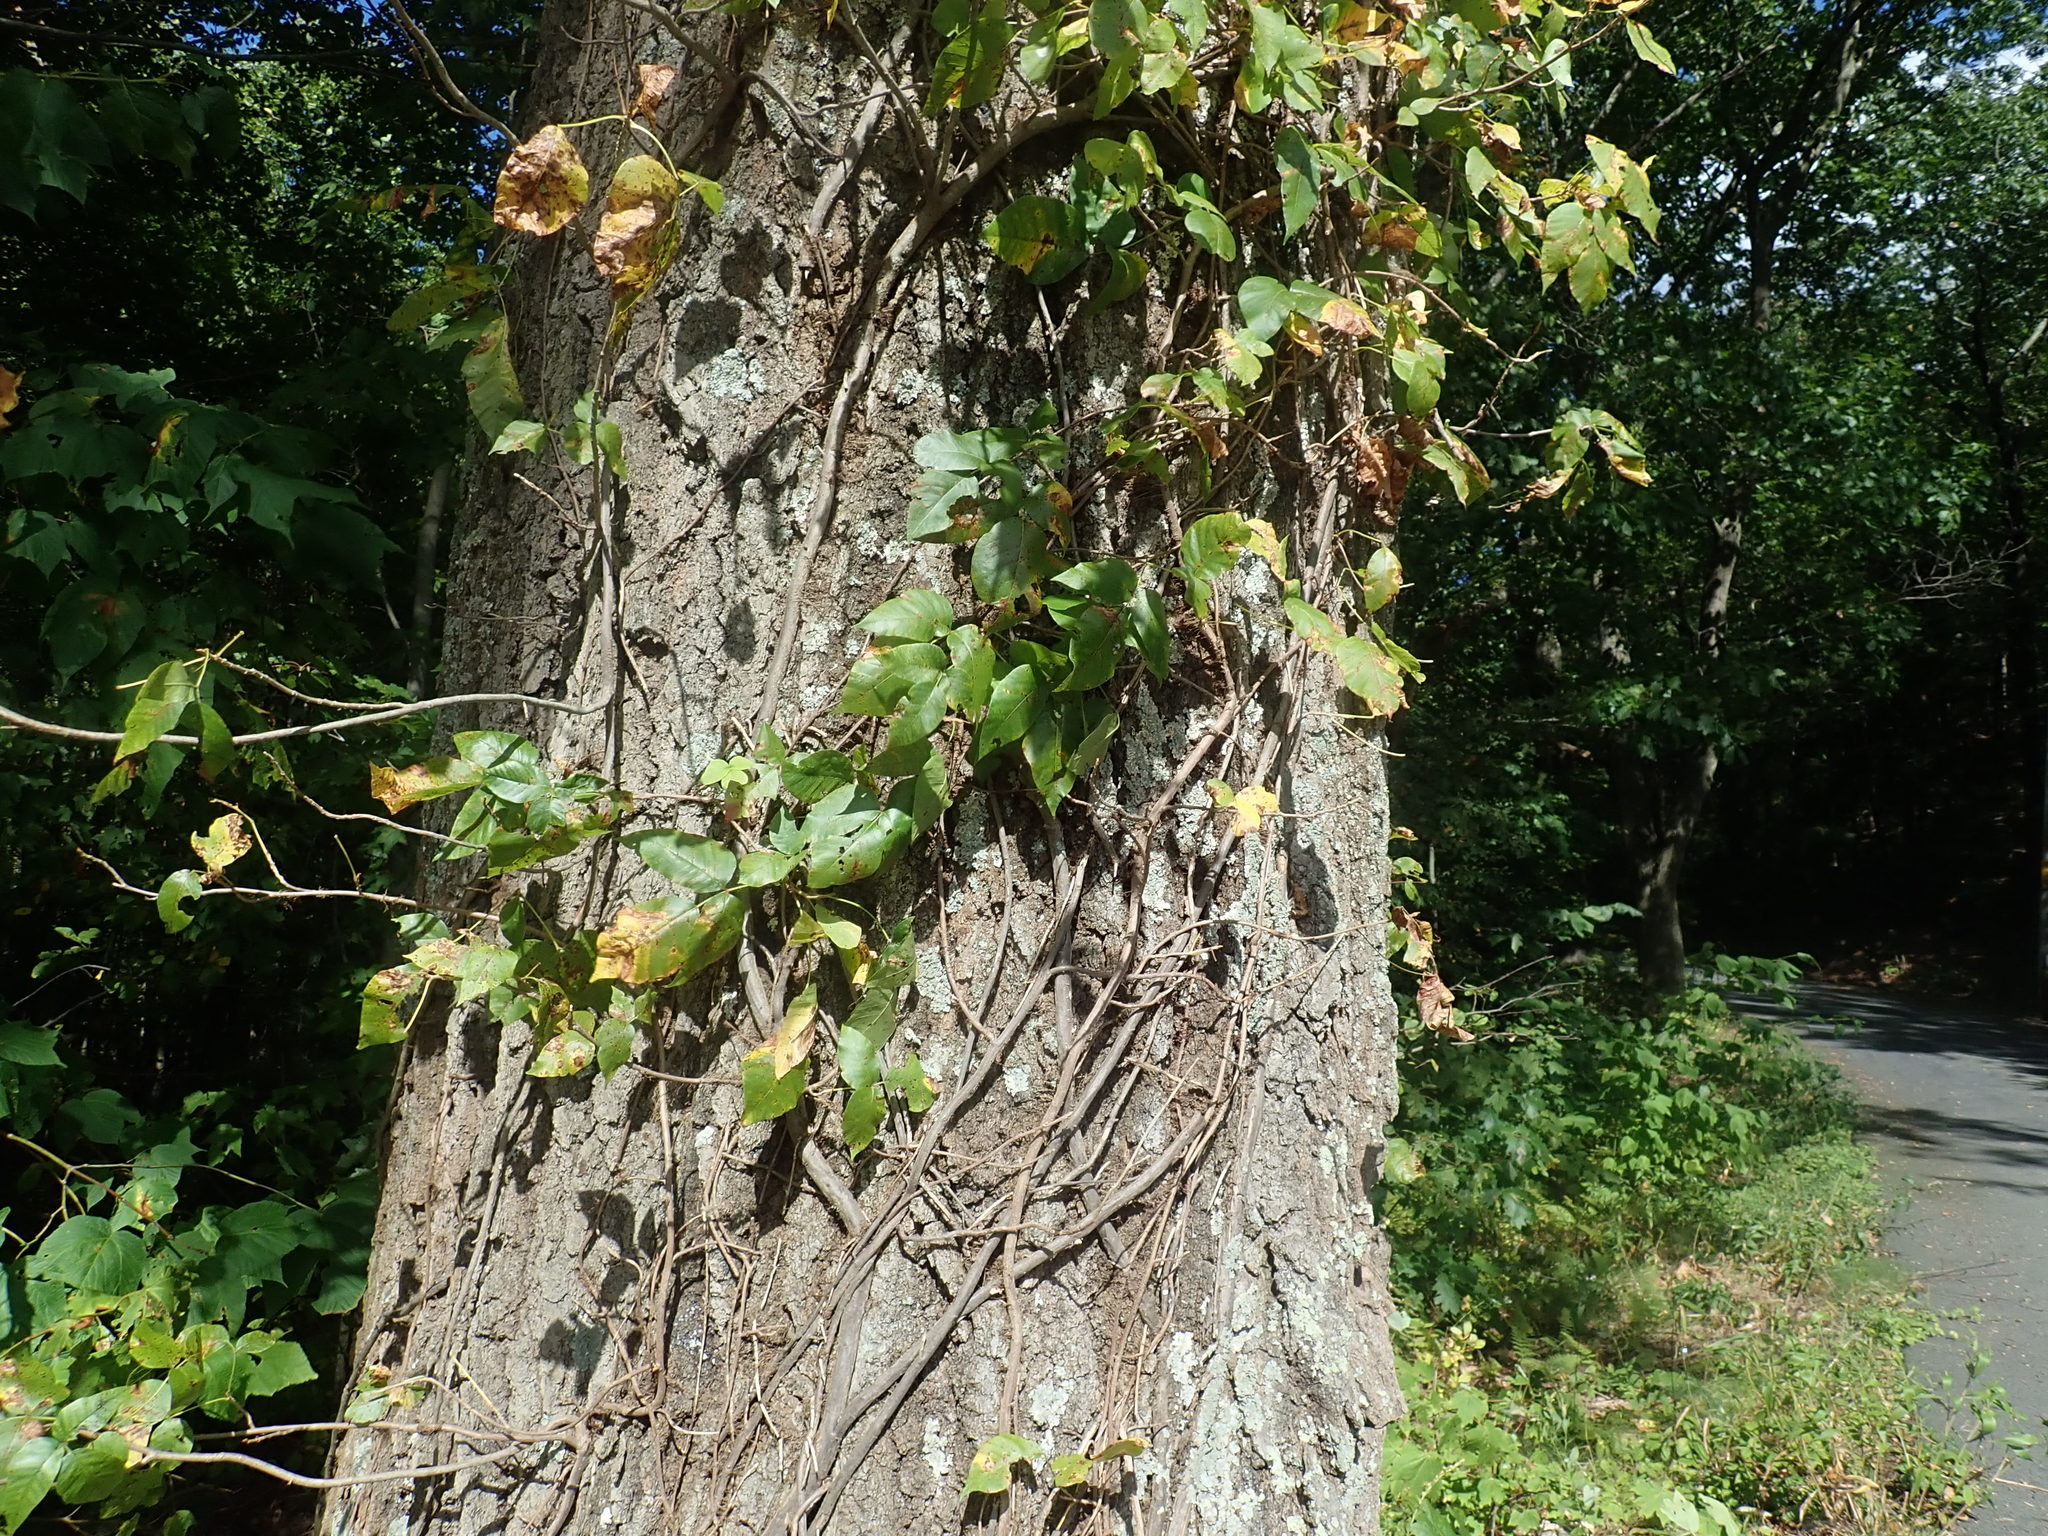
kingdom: Plantae
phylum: Tracheophyta
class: Magnoliopsida
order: Sapindales
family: Anacardiaceae
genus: Toxicodendron
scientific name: Toxicodendron radicans
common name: Poison ivy
